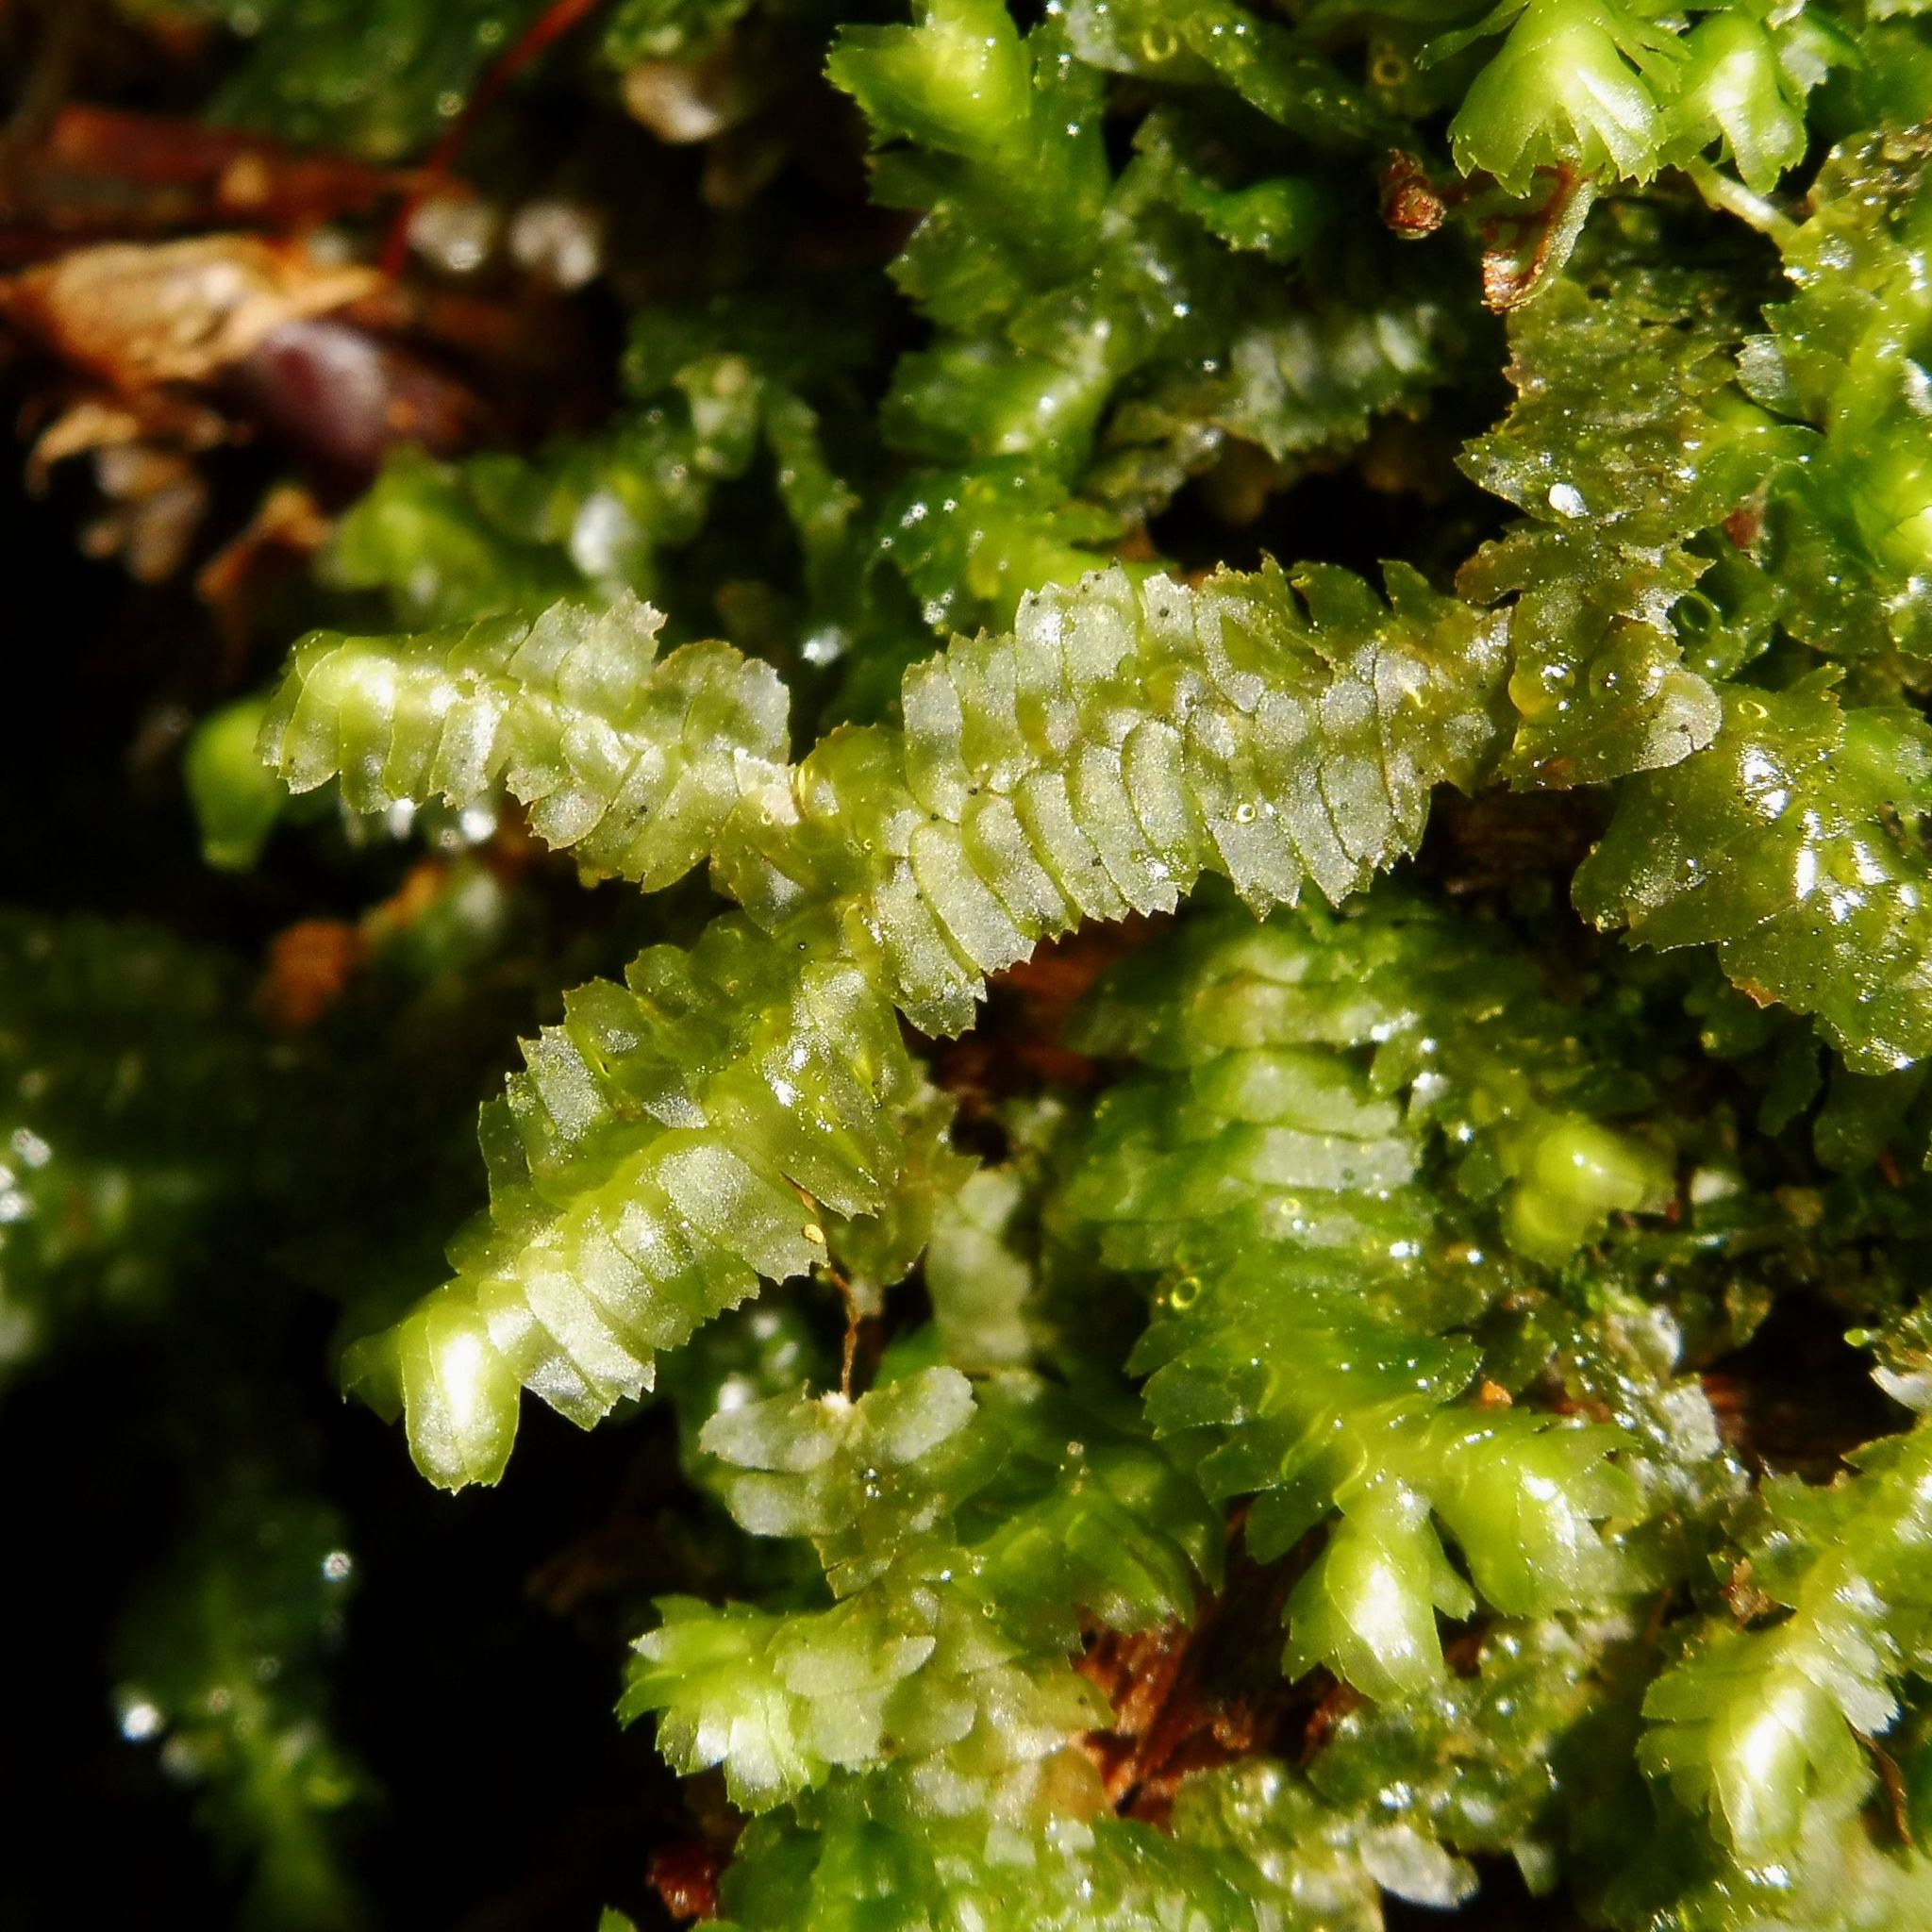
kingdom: Plantae
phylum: Marchantiophyta
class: Jungermanniopsida
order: Jungermanniales
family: Lepidoziaceae
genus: Bazzania
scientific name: Bazzania trilobata
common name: Three-lobed whipwort
